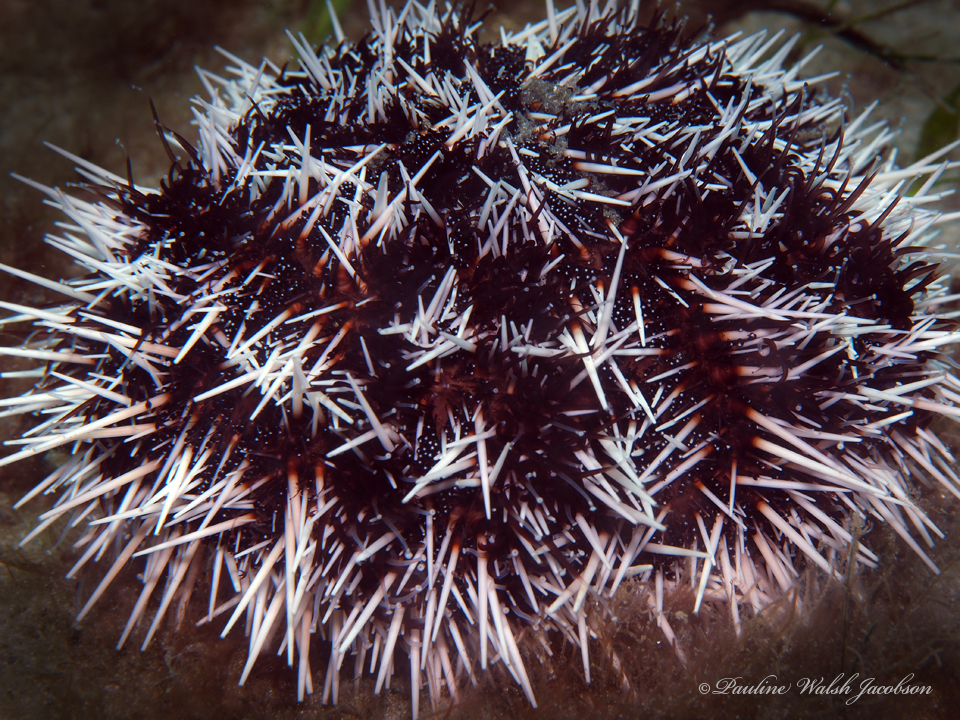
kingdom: Animalia
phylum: Echinodermata
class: Echinoidea
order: Camarodonta
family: Toxopneustidae
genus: Tripneustes
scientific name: Tripneustes ventricosus
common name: West indian sea egg
